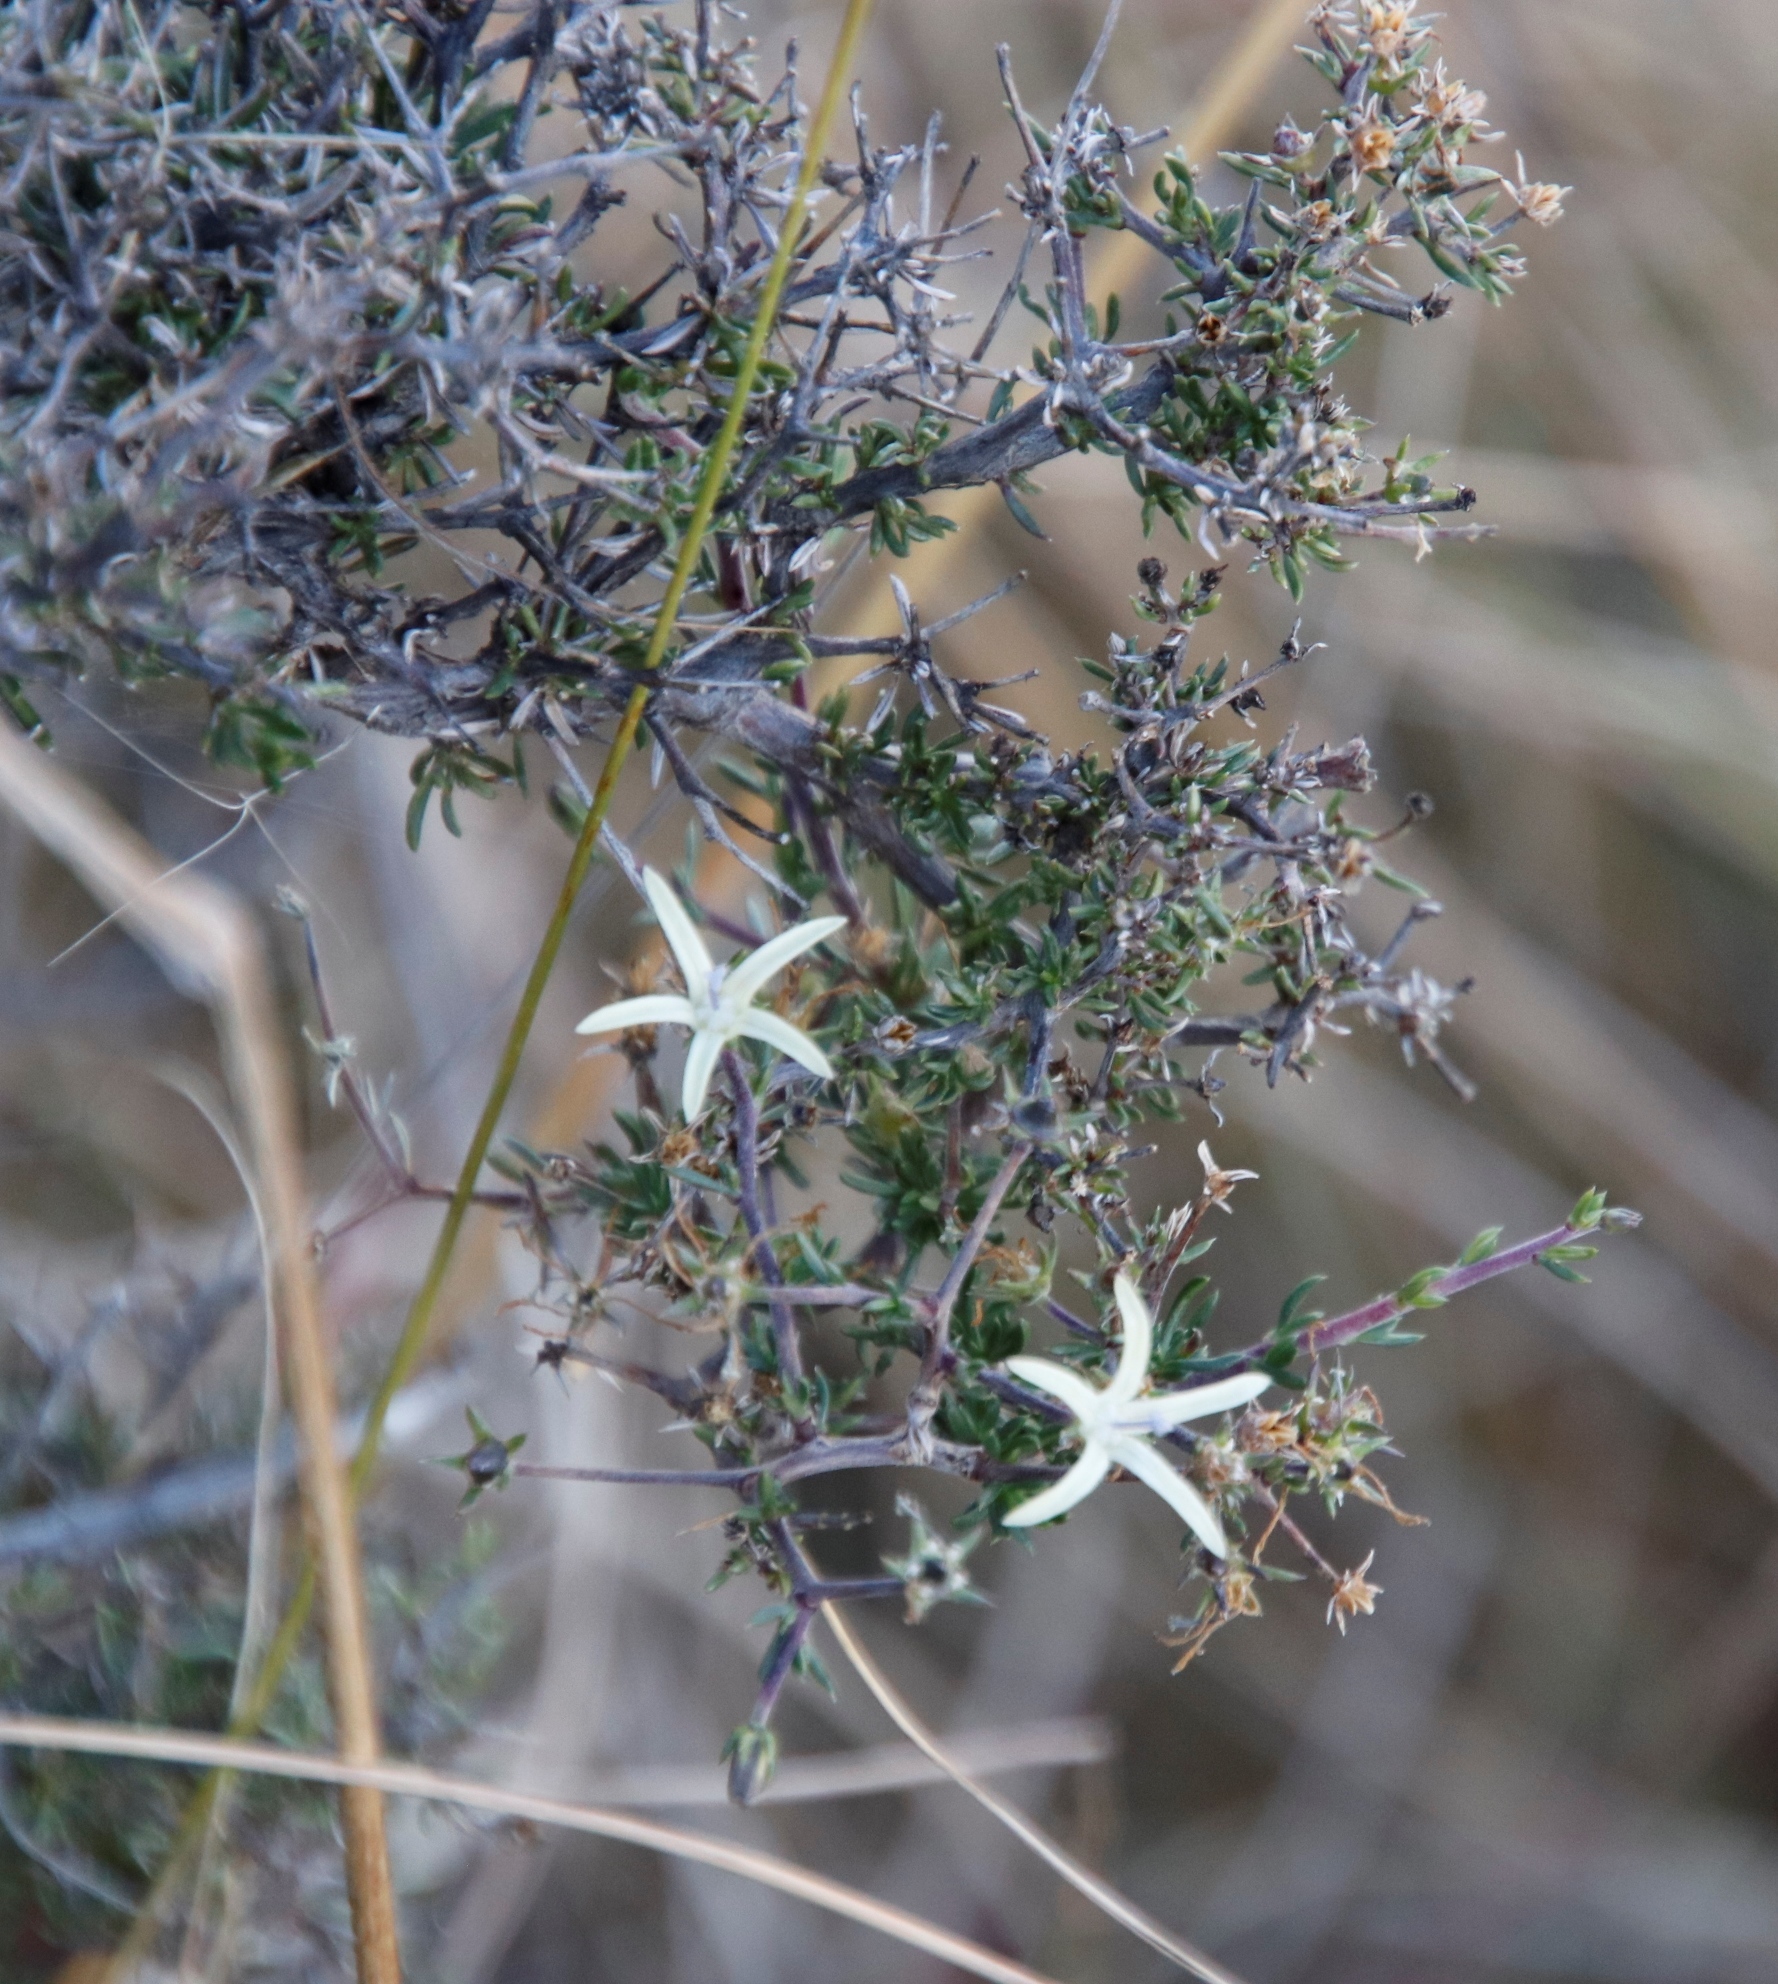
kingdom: Plantae
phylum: Tracheophyta
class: Magnoliopsida
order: Asterales
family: Campanulaceae
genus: Wahlenbergia
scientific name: Wahlenbergia albens
